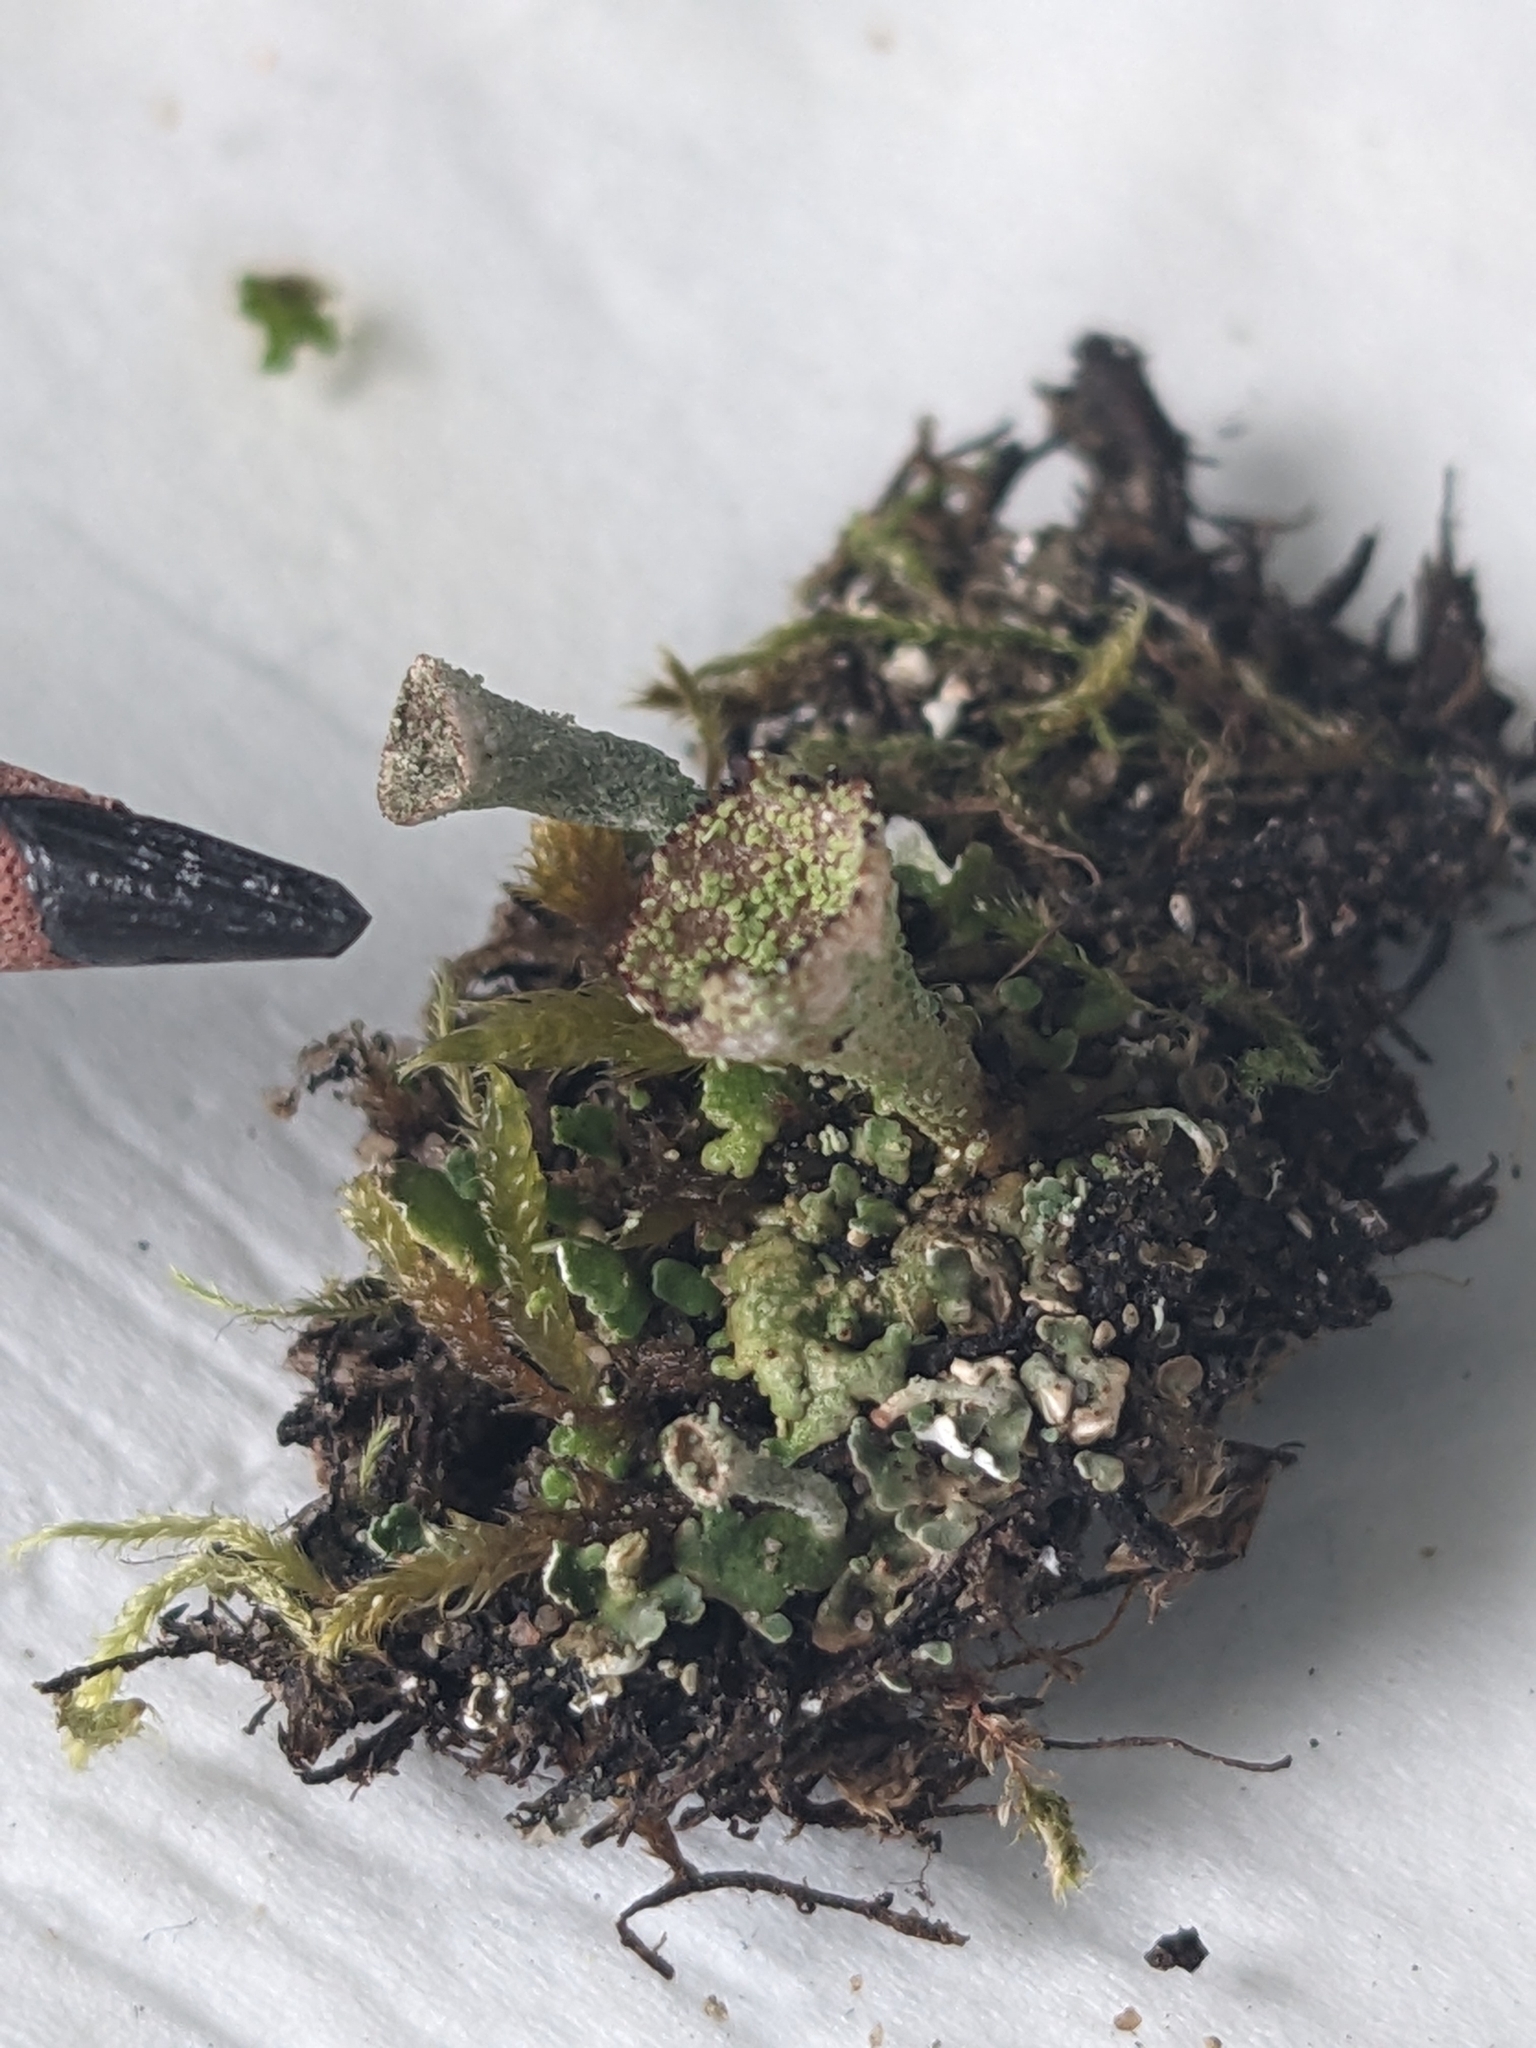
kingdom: Fungi
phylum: Ascomycota
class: Lecanoromycetes
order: Lecanorales
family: Cladoniaceae
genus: Cladonia
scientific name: Cladonia pyxidata
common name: Pebbled pixie cup
